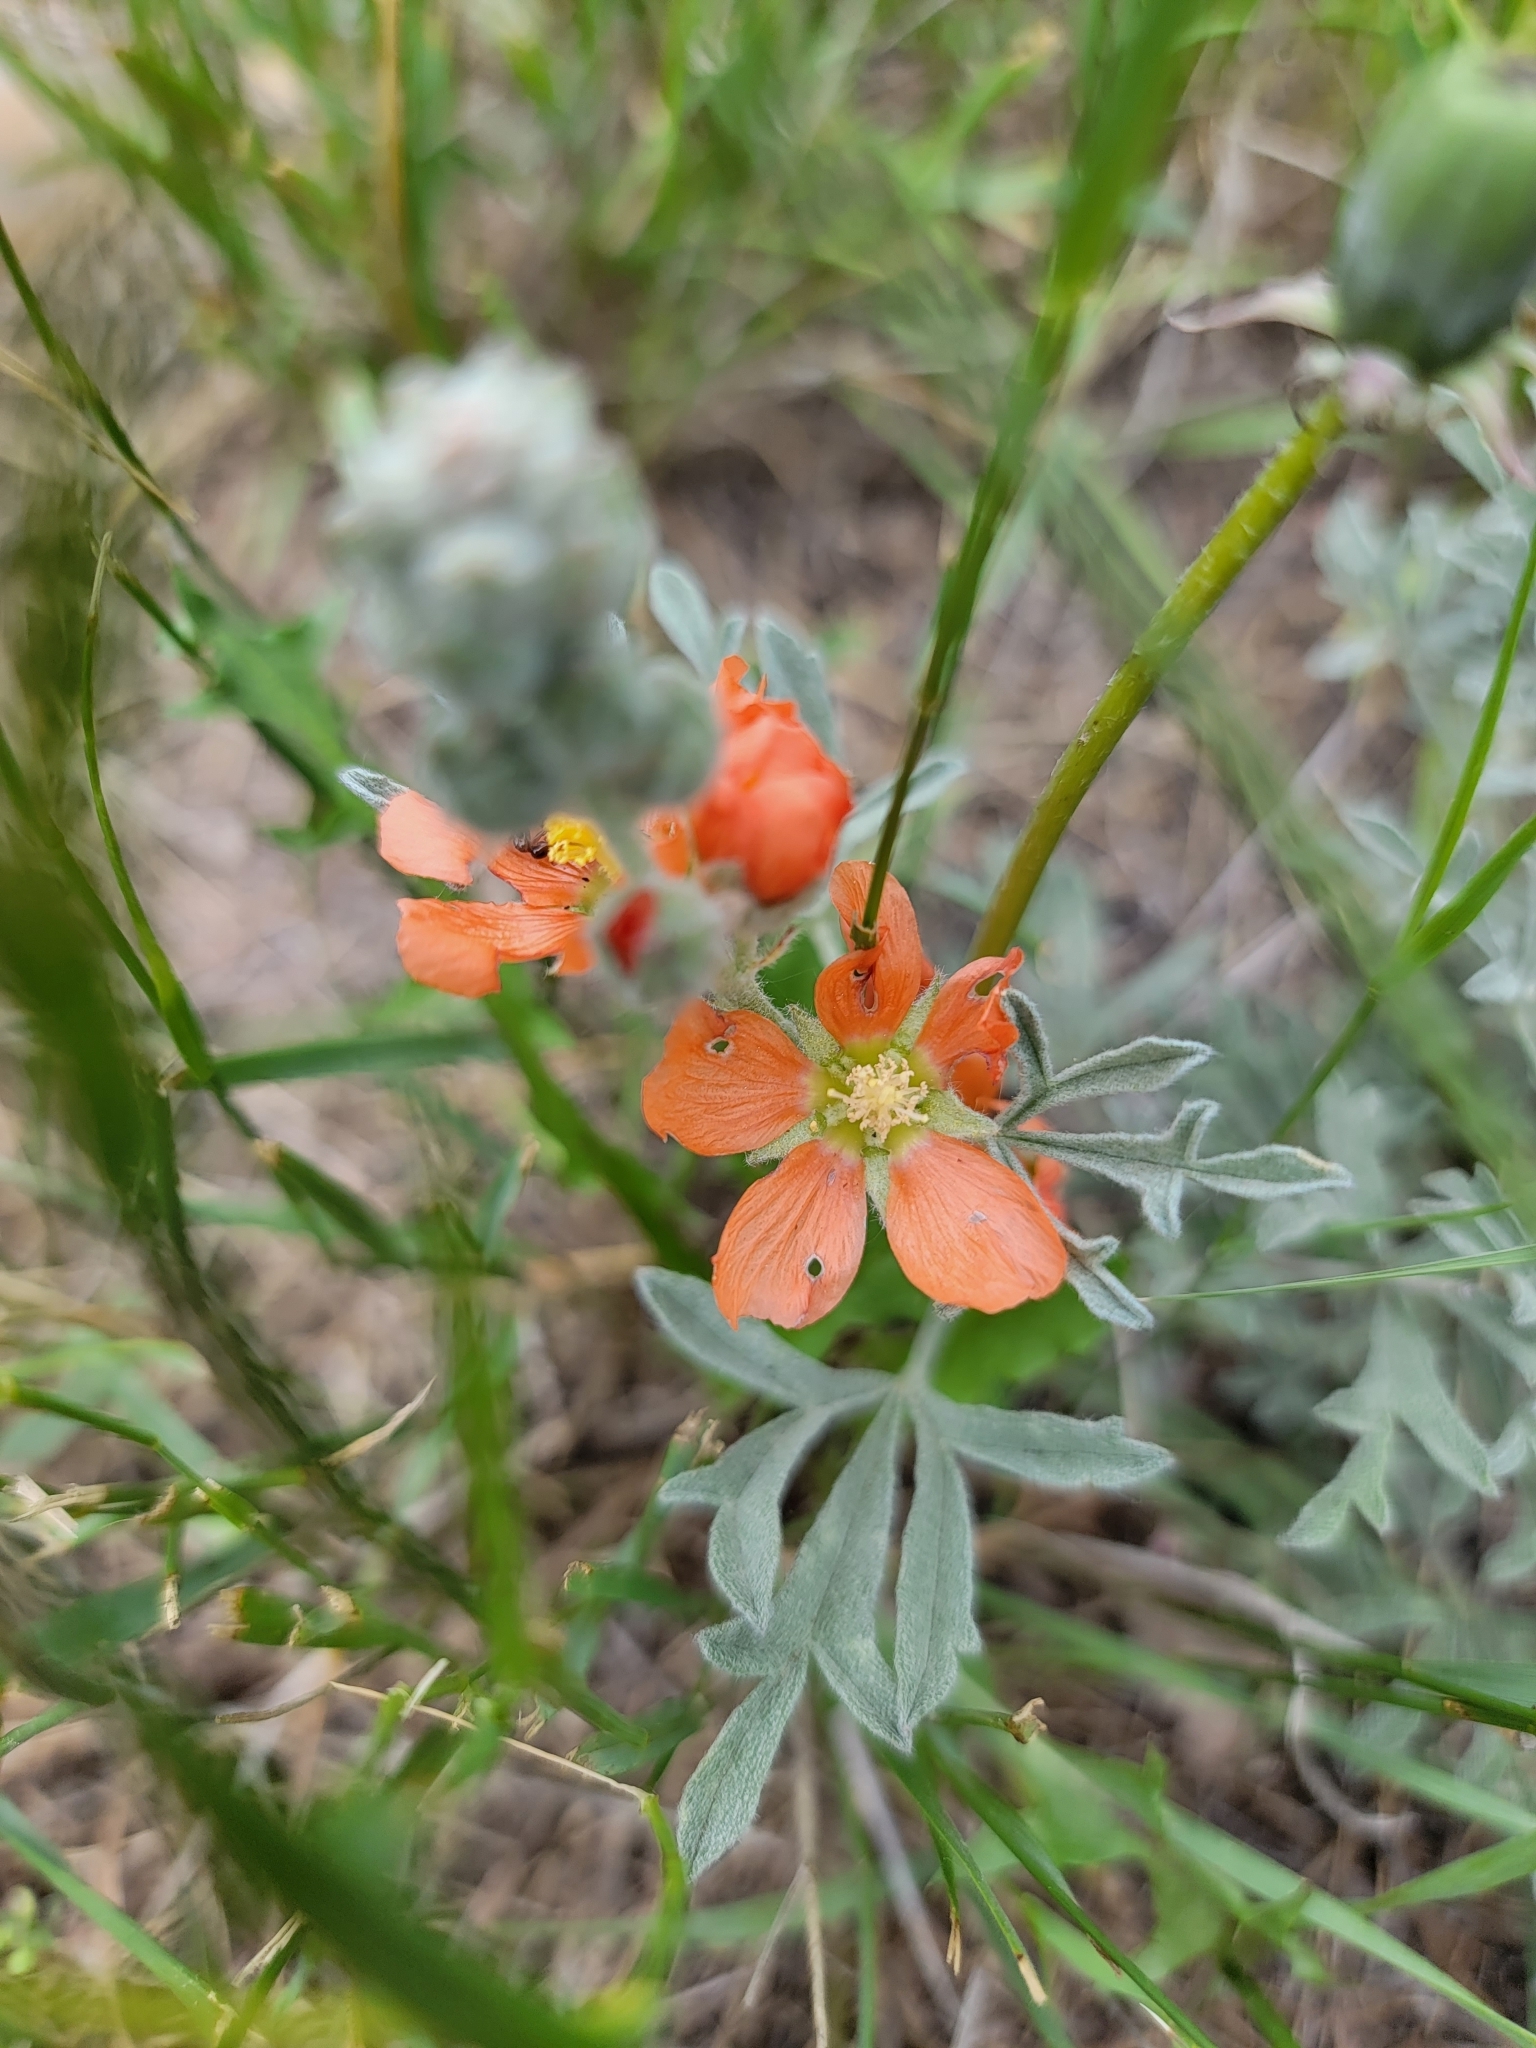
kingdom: Plantae
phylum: Tracheophyta
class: Magnoliopsida
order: Malvales
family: Malvaceae
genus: Sphaeralcea
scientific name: Sphaeralcea coccinea
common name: Moss-rose
